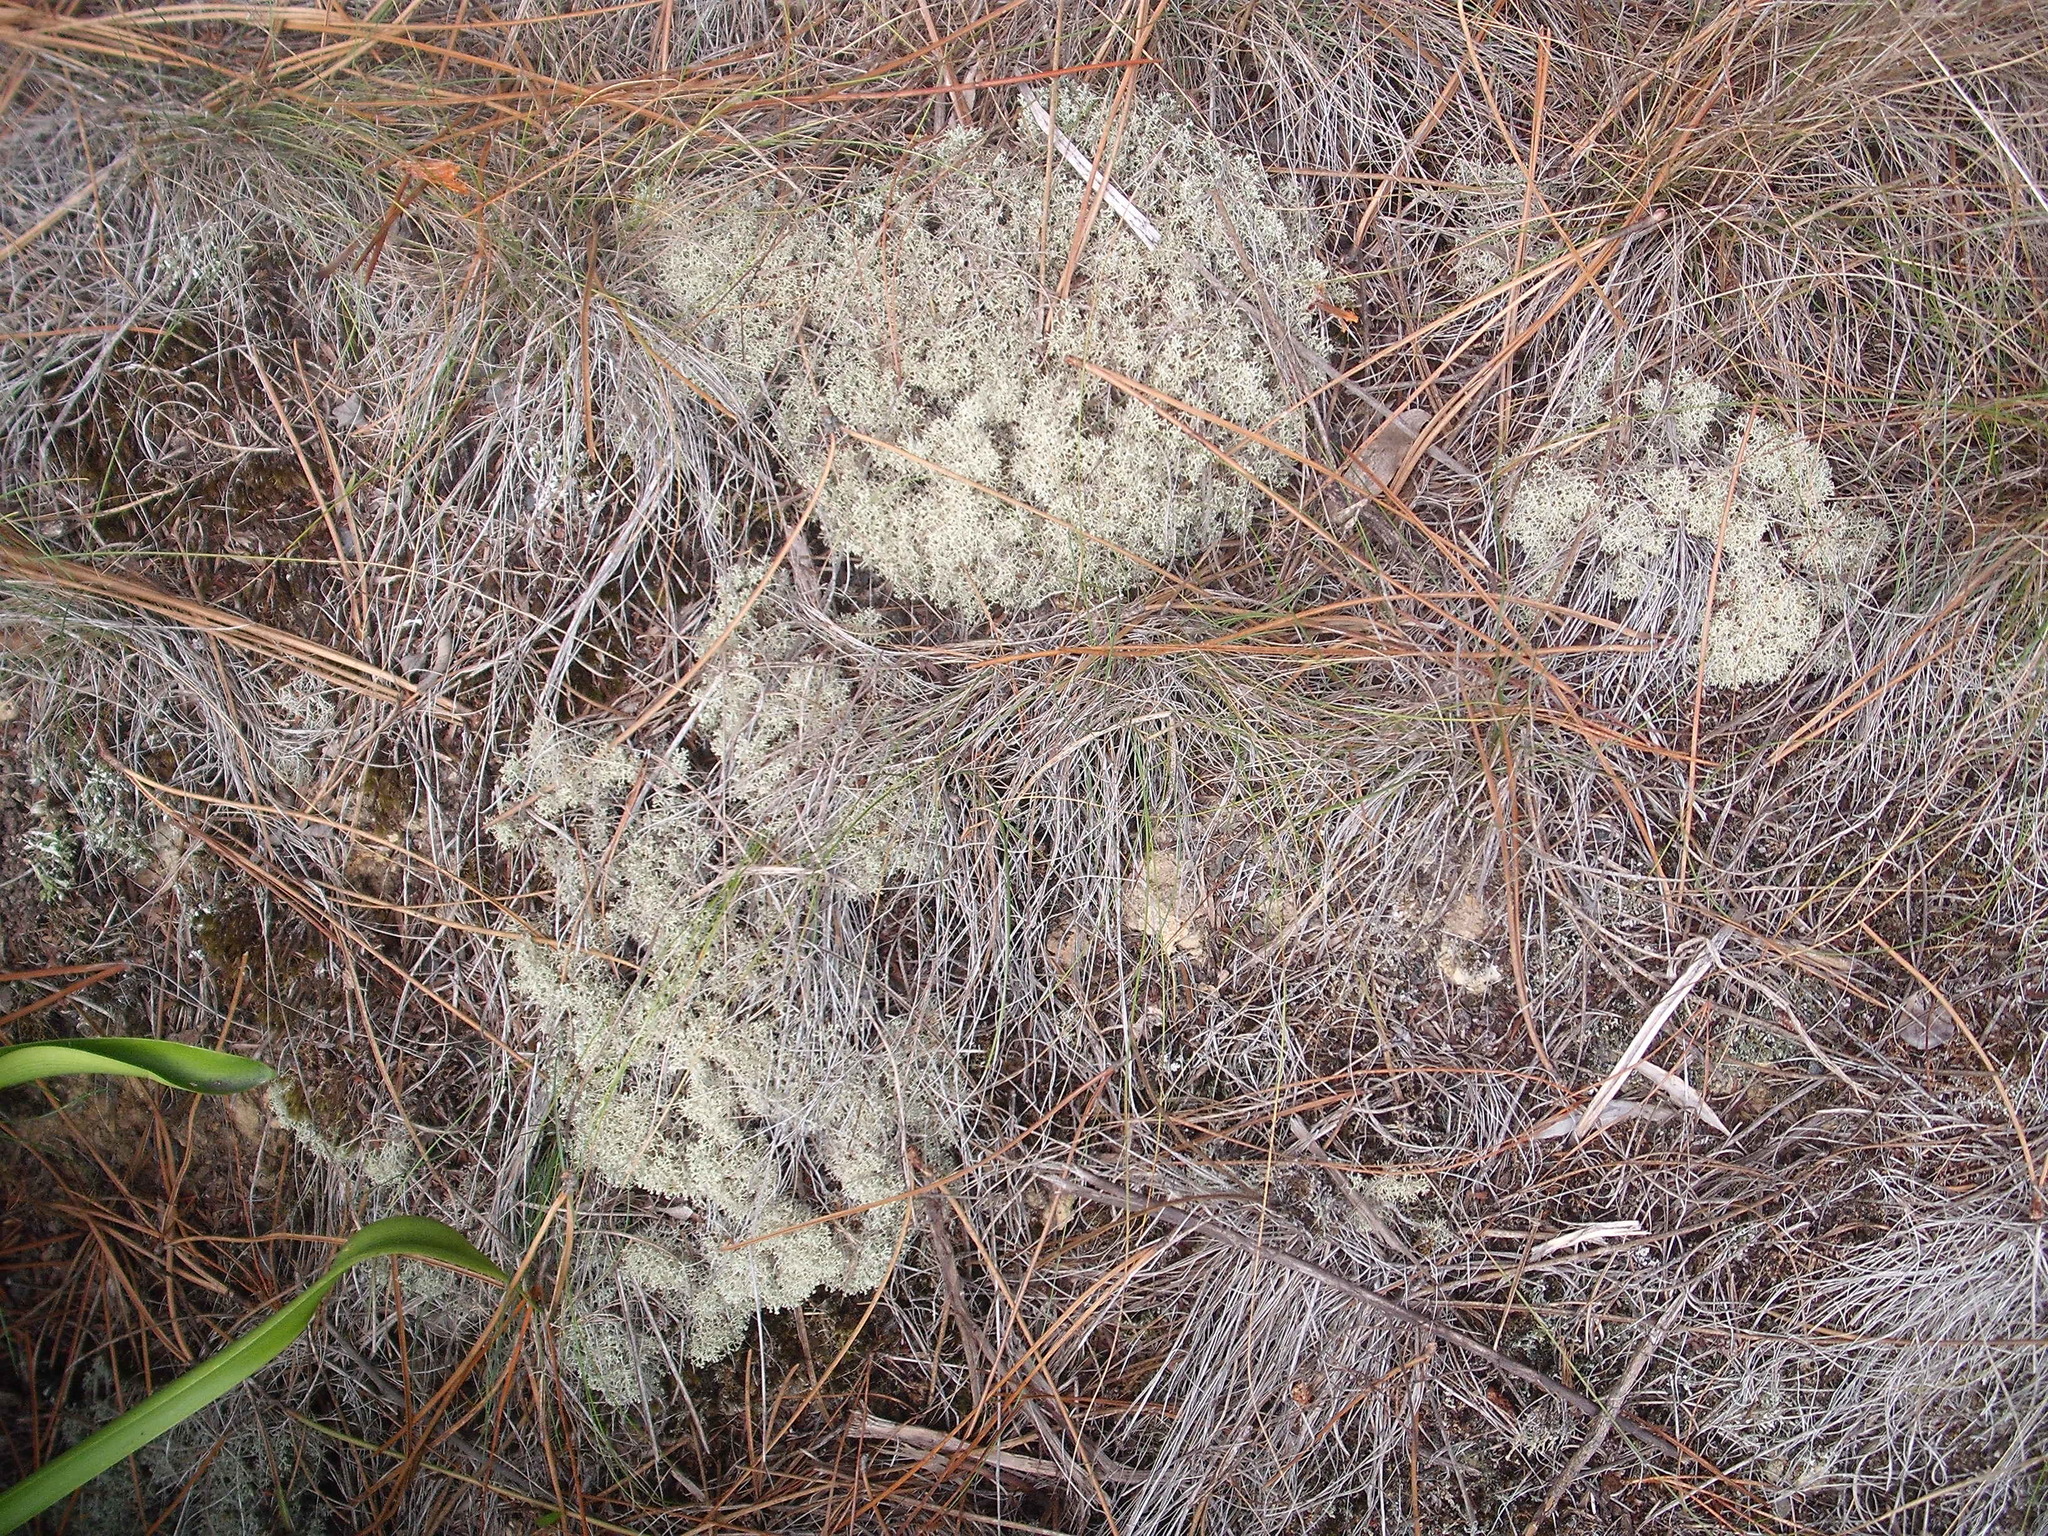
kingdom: Fungi
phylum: Ascomycota
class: Lecanoromycetes
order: Lecanorales
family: Cladoniaceae
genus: Cladonia
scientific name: Cladonia confusa
